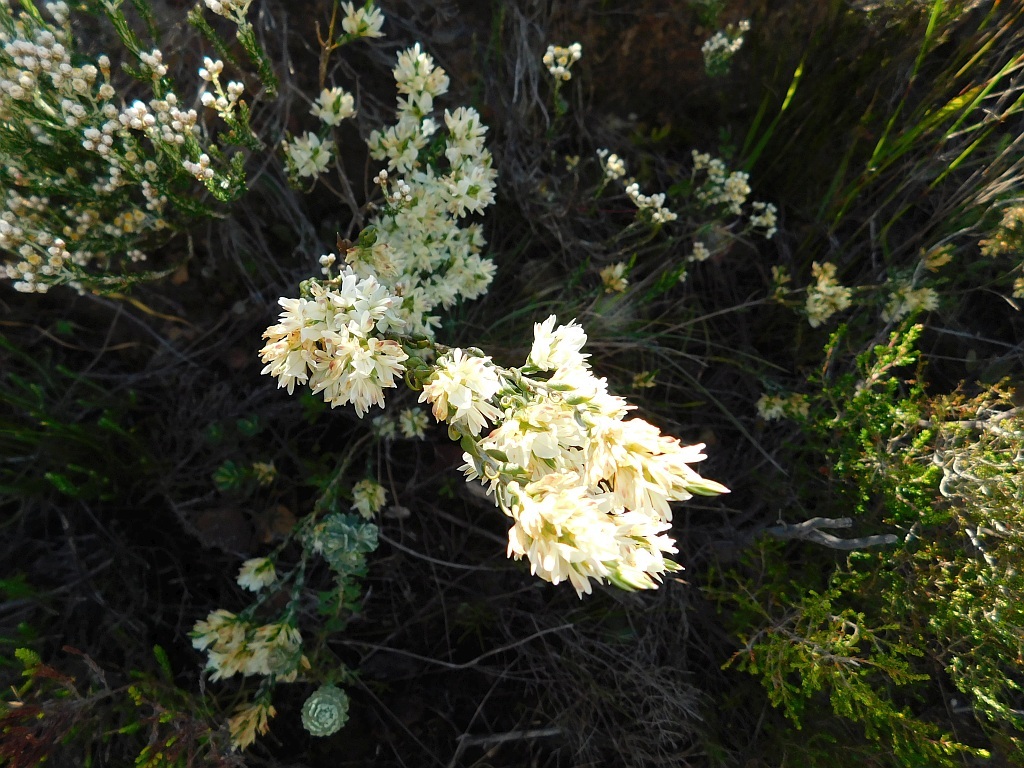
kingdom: Plantae
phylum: Tracheophyta
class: Magnoliopsida
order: Fabales
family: Fabaceae
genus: Amphithalea
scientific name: Amphithalea ciliaris
